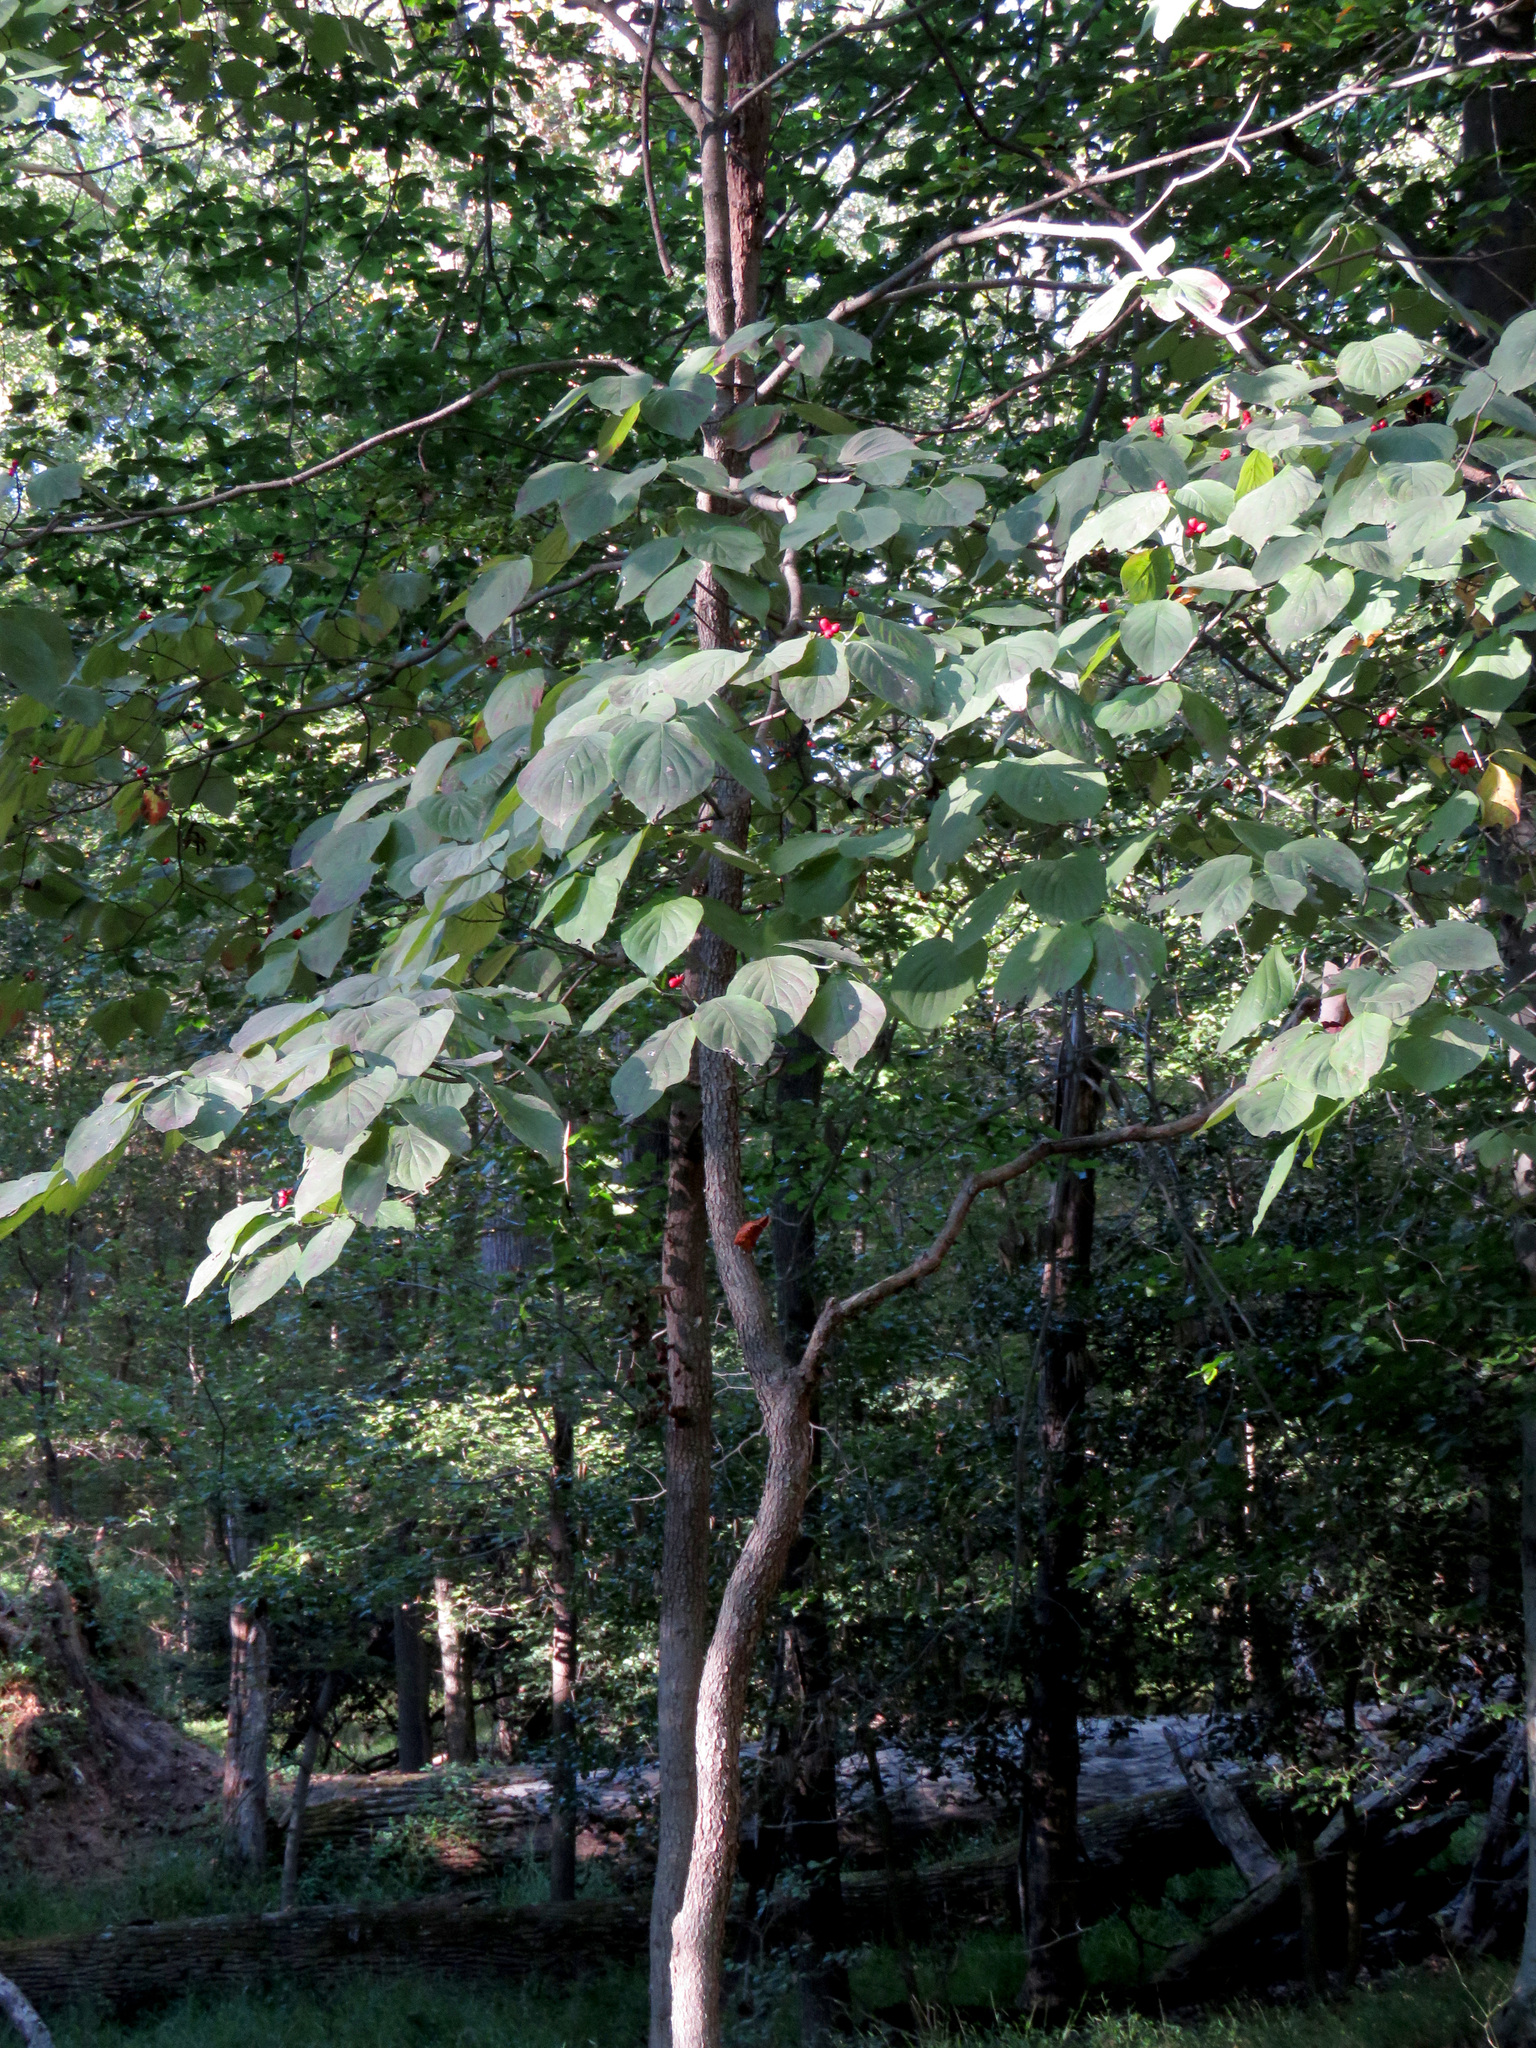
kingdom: Plantae
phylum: Tracheophyta
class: Magnoliopsida
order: Cornales
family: Cornaceae
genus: Cornus
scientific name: Cornus florida
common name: Flowering dogwood
